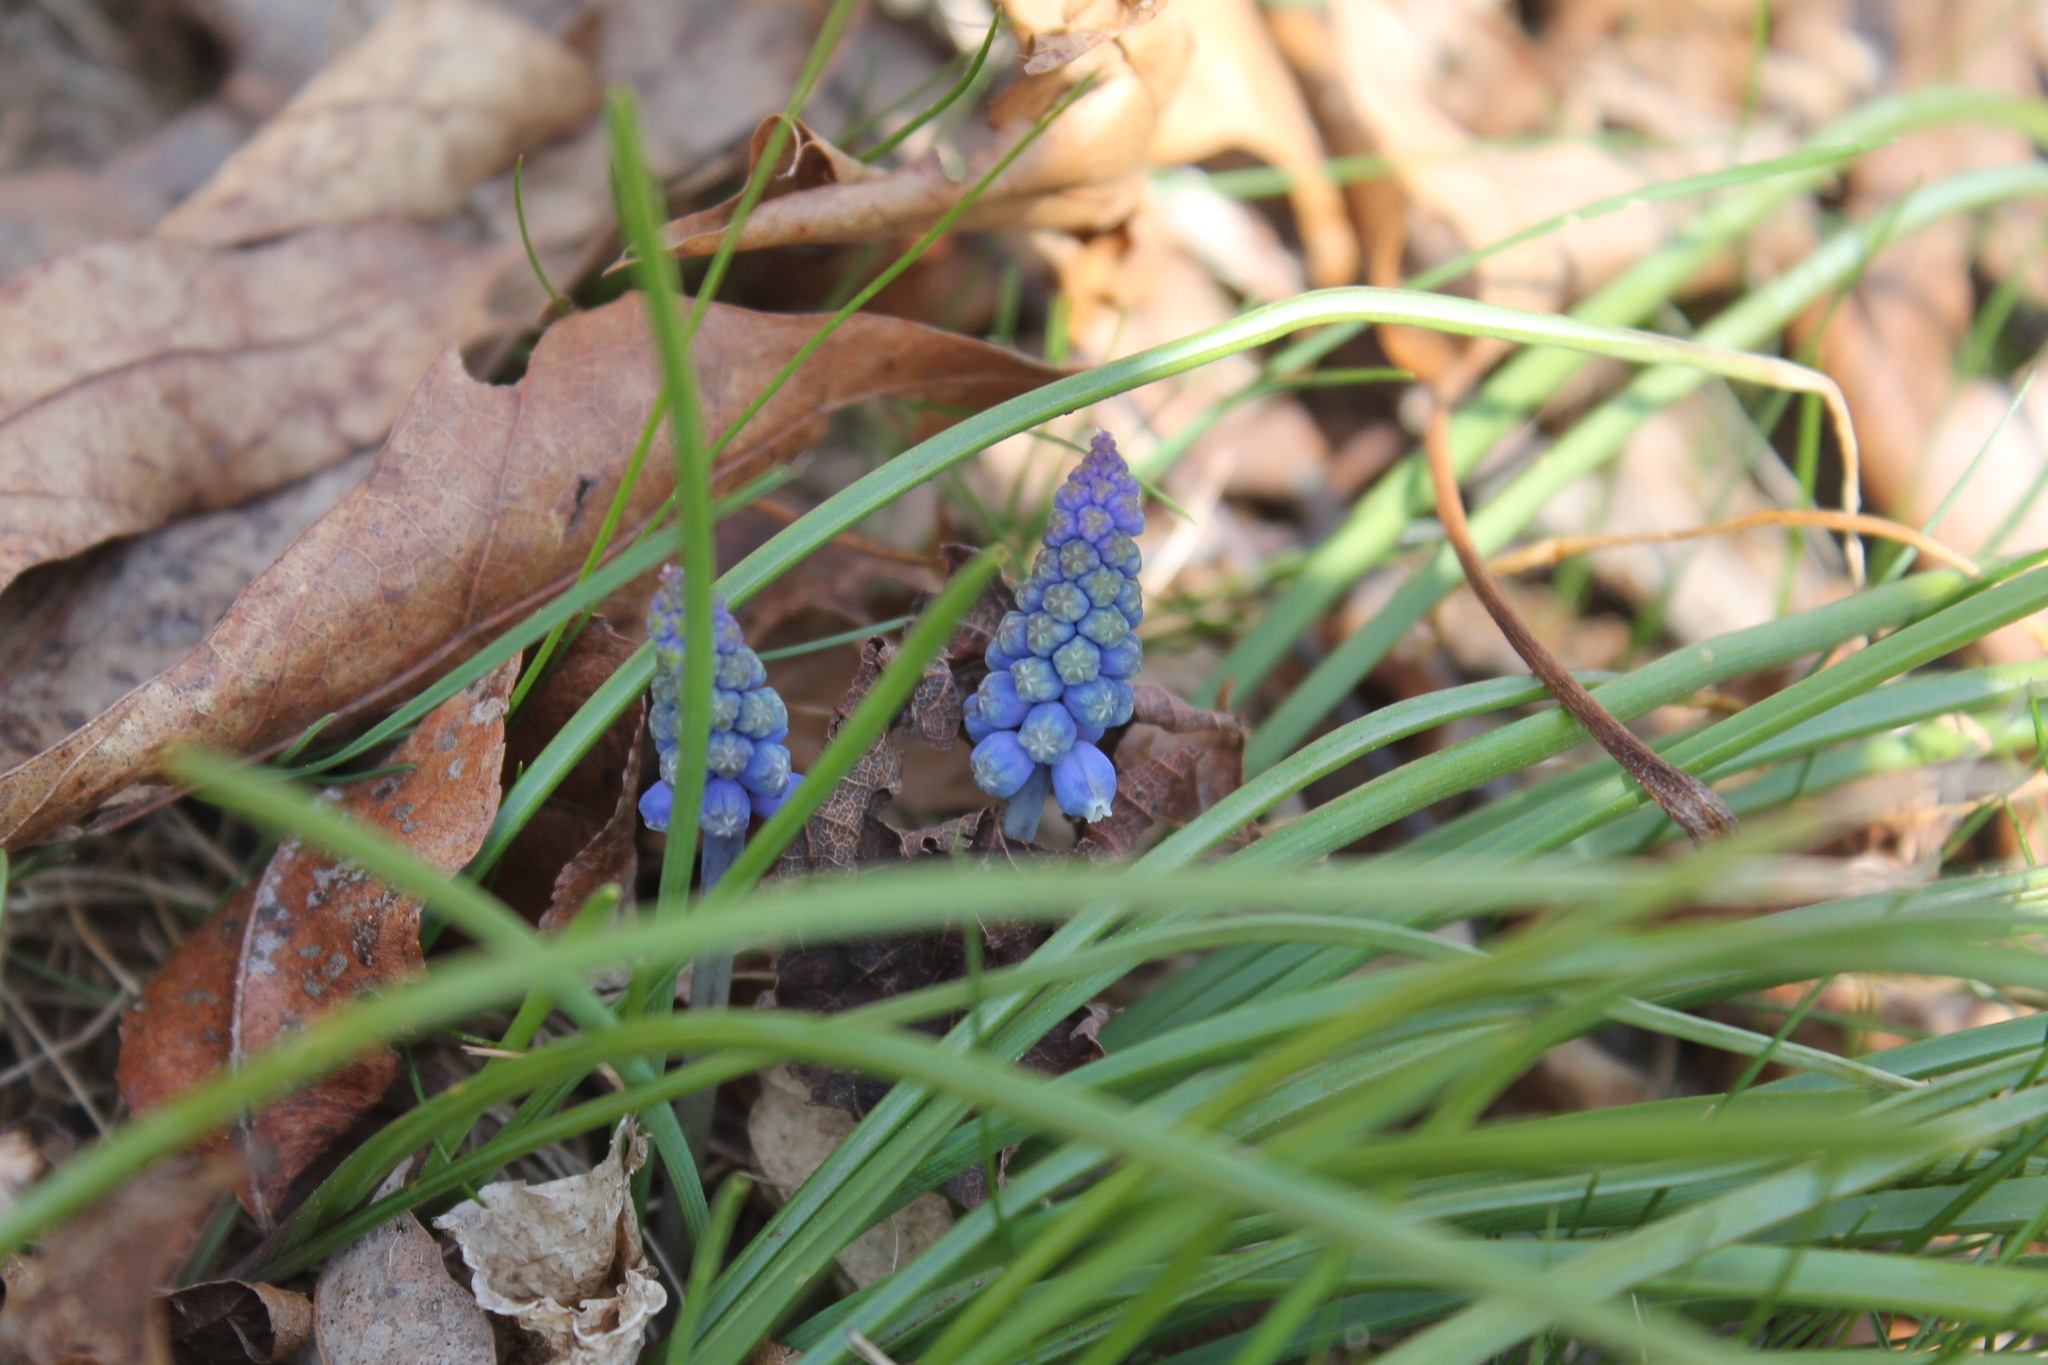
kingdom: Plantae
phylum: Tracheophyta
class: Liliopsida
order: Asparagales
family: Asparagaceae
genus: Muscari
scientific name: Muscari botryoides
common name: Compact grape-hyacinth
